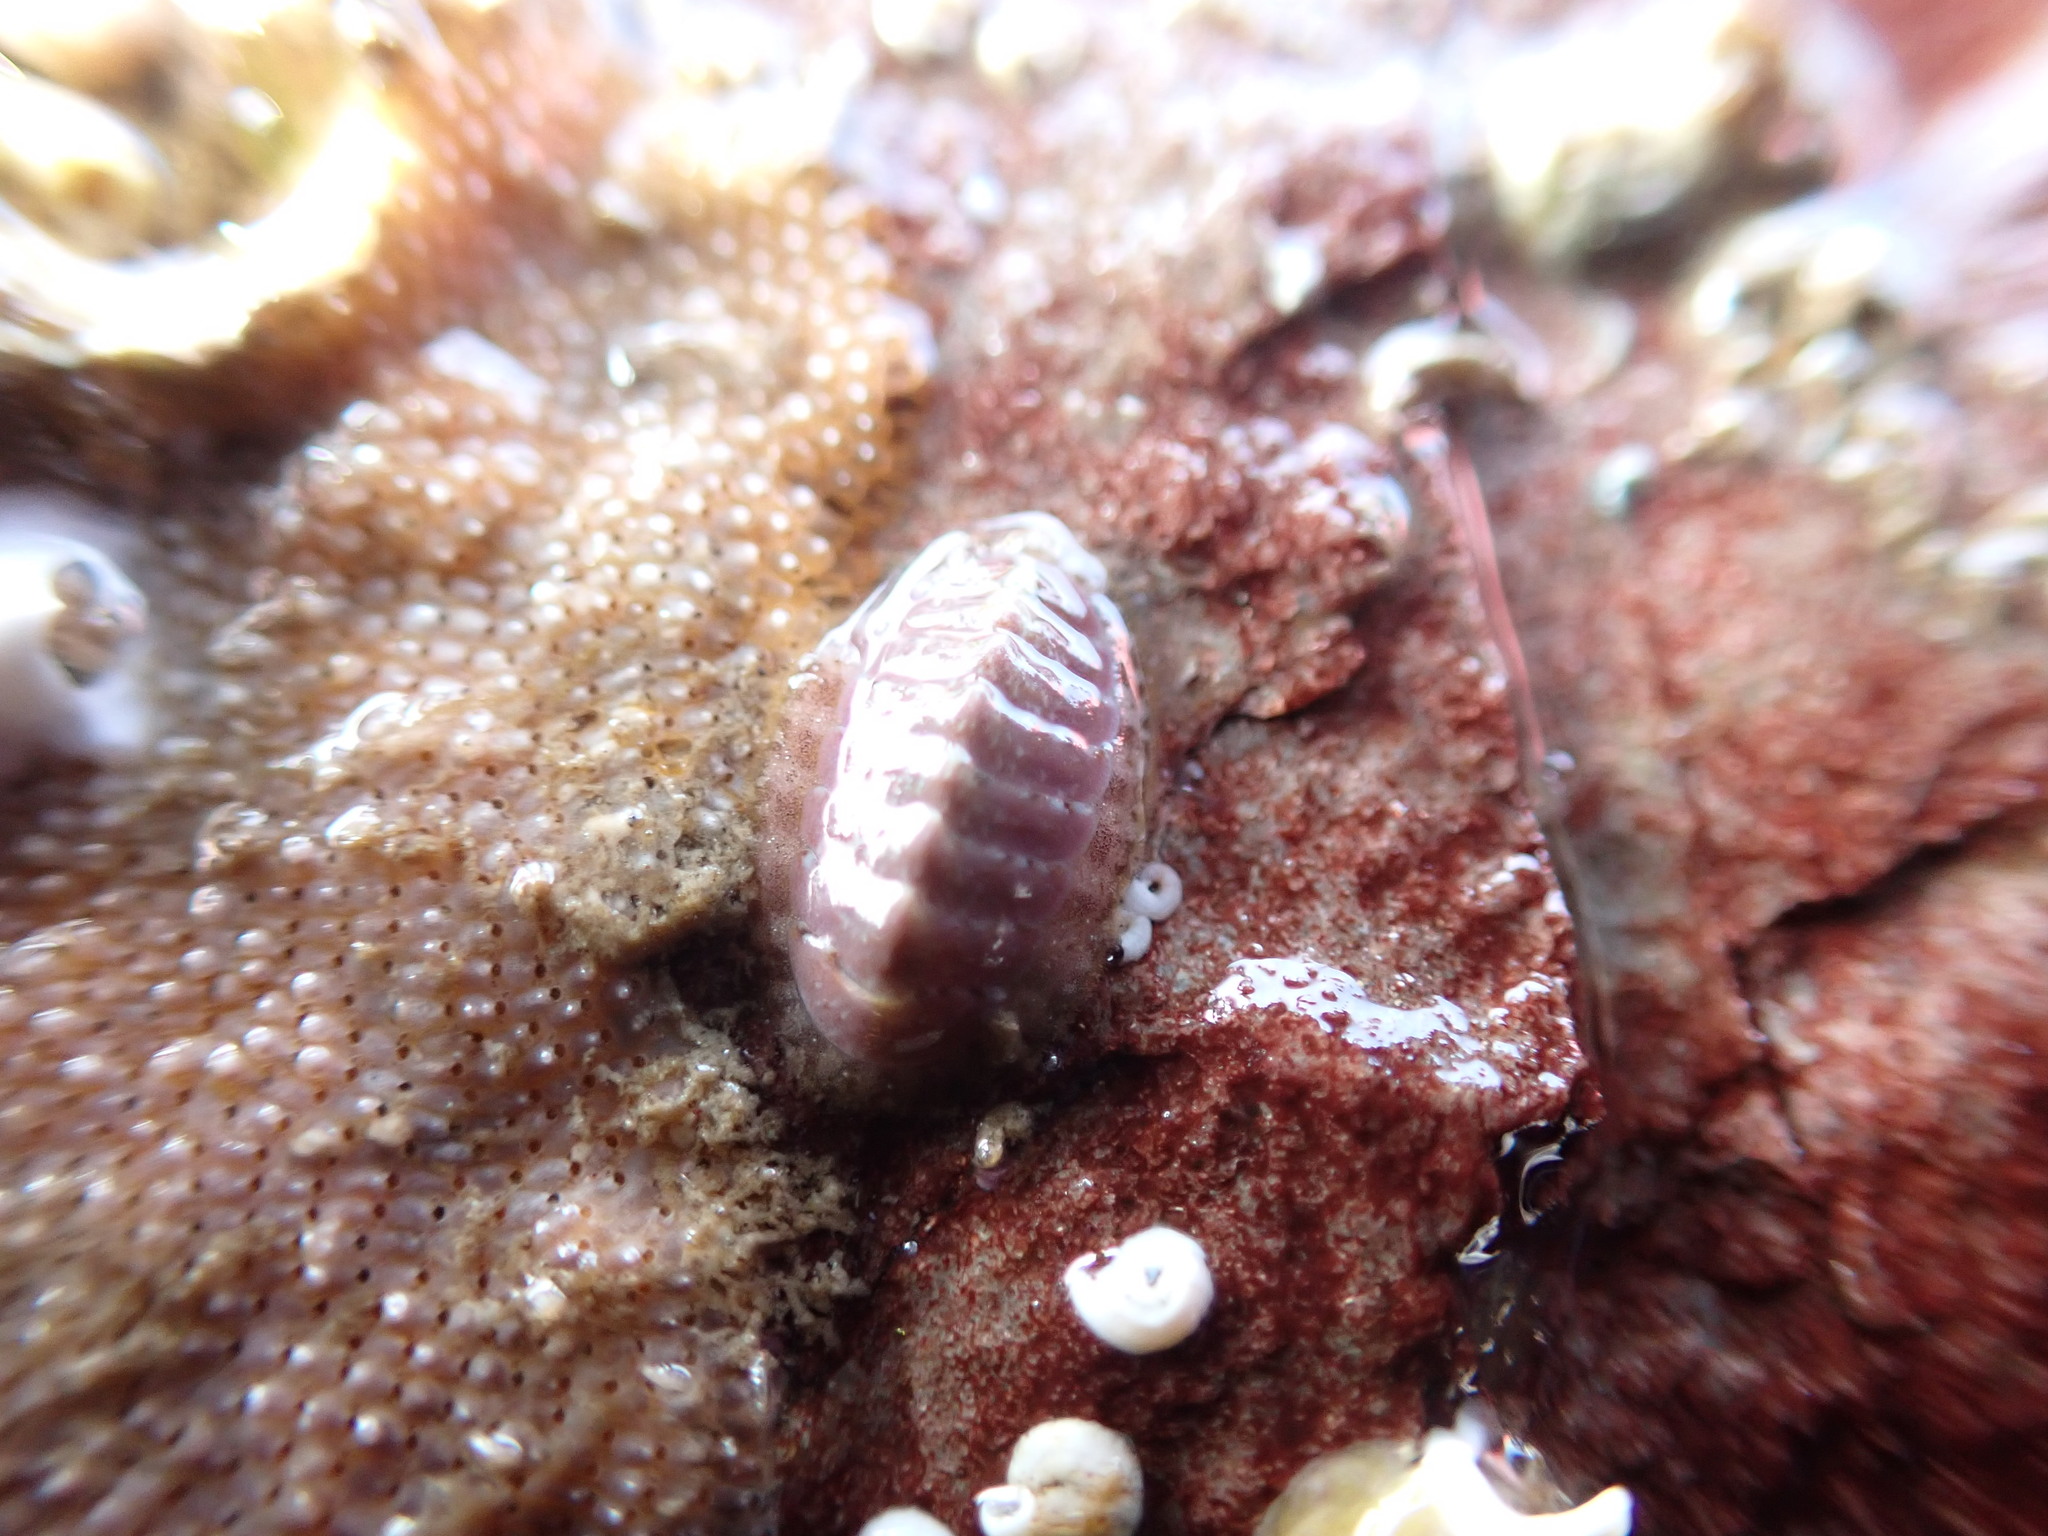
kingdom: Animalia
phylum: Mollusca
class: Polyplacophora
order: Chitonida
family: Tonicellidae
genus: Lepidochitona
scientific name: Lepidochitona cinerea
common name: Cinereous chiton
